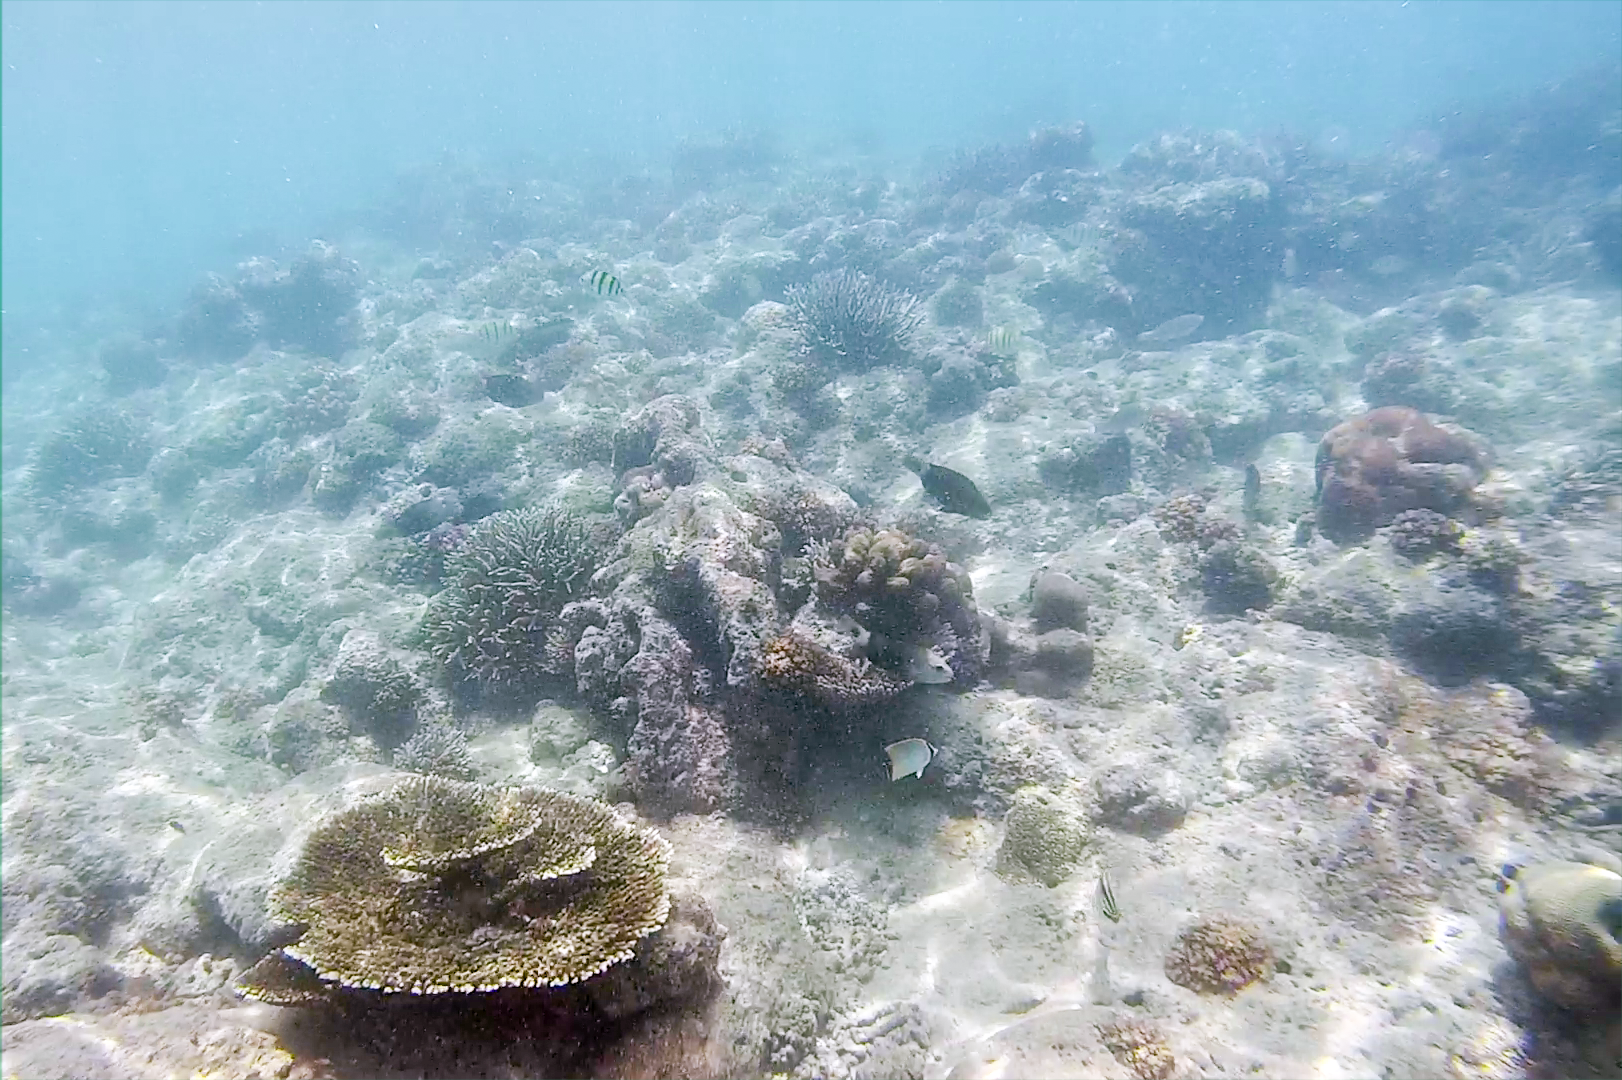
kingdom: Animalia
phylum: Chordata
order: Perciformes
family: Scaridae
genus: Chlorurus
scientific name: Chlorurus sordidus
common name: Bullethead parrotfish
